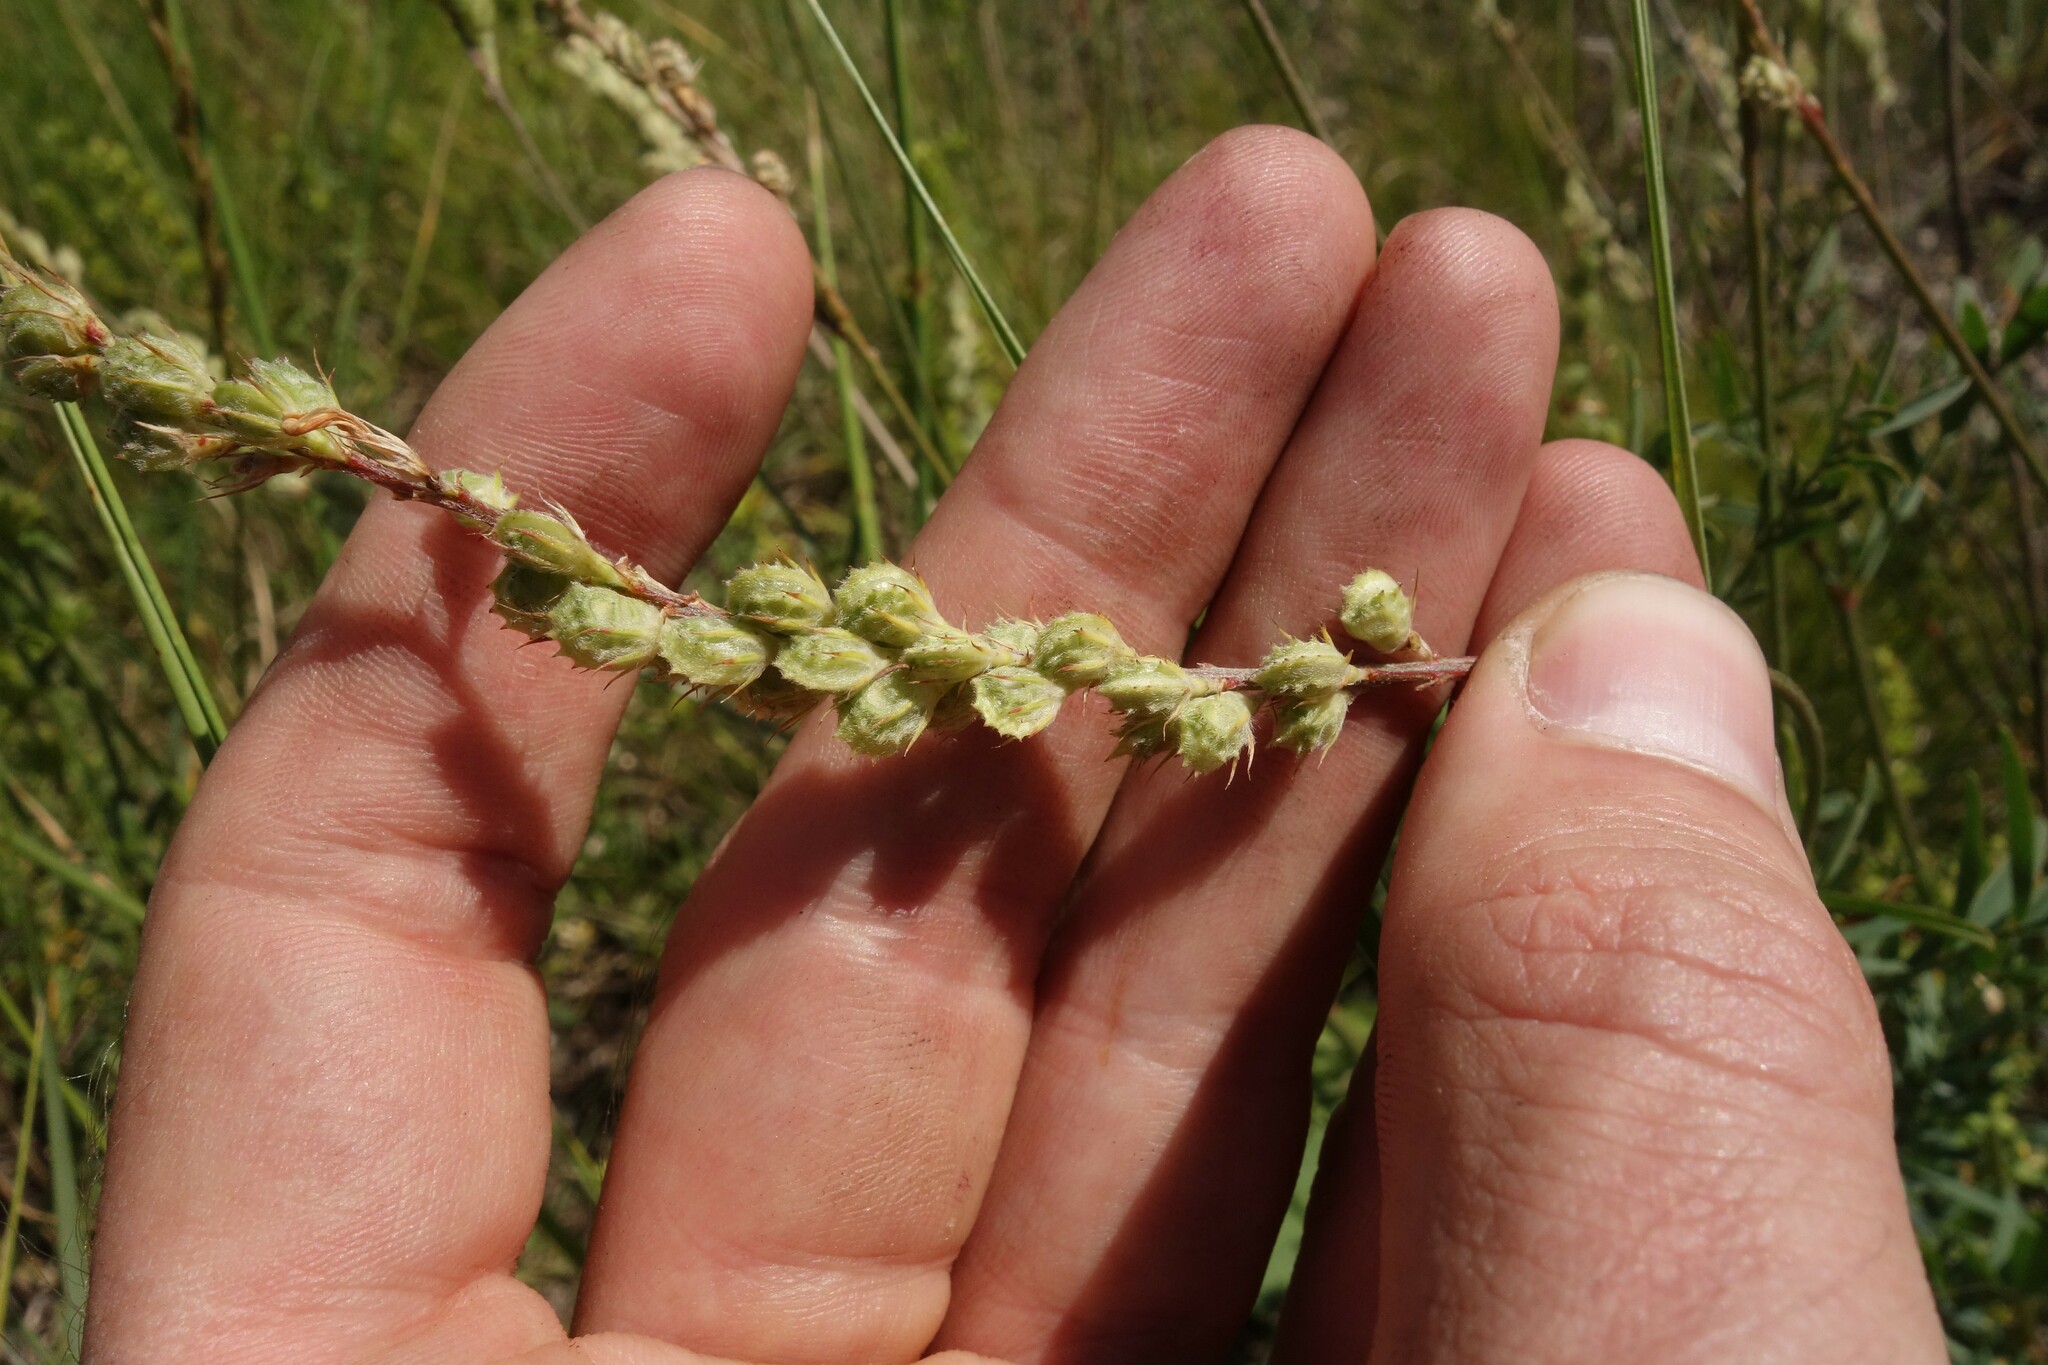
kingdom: Plantae
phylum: Tracheophyta
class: Magnoliopsida
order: Fabales
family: Fabaceae
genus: Onobrychis
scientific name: Onobrychis viciifolia
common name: Sainfoin
